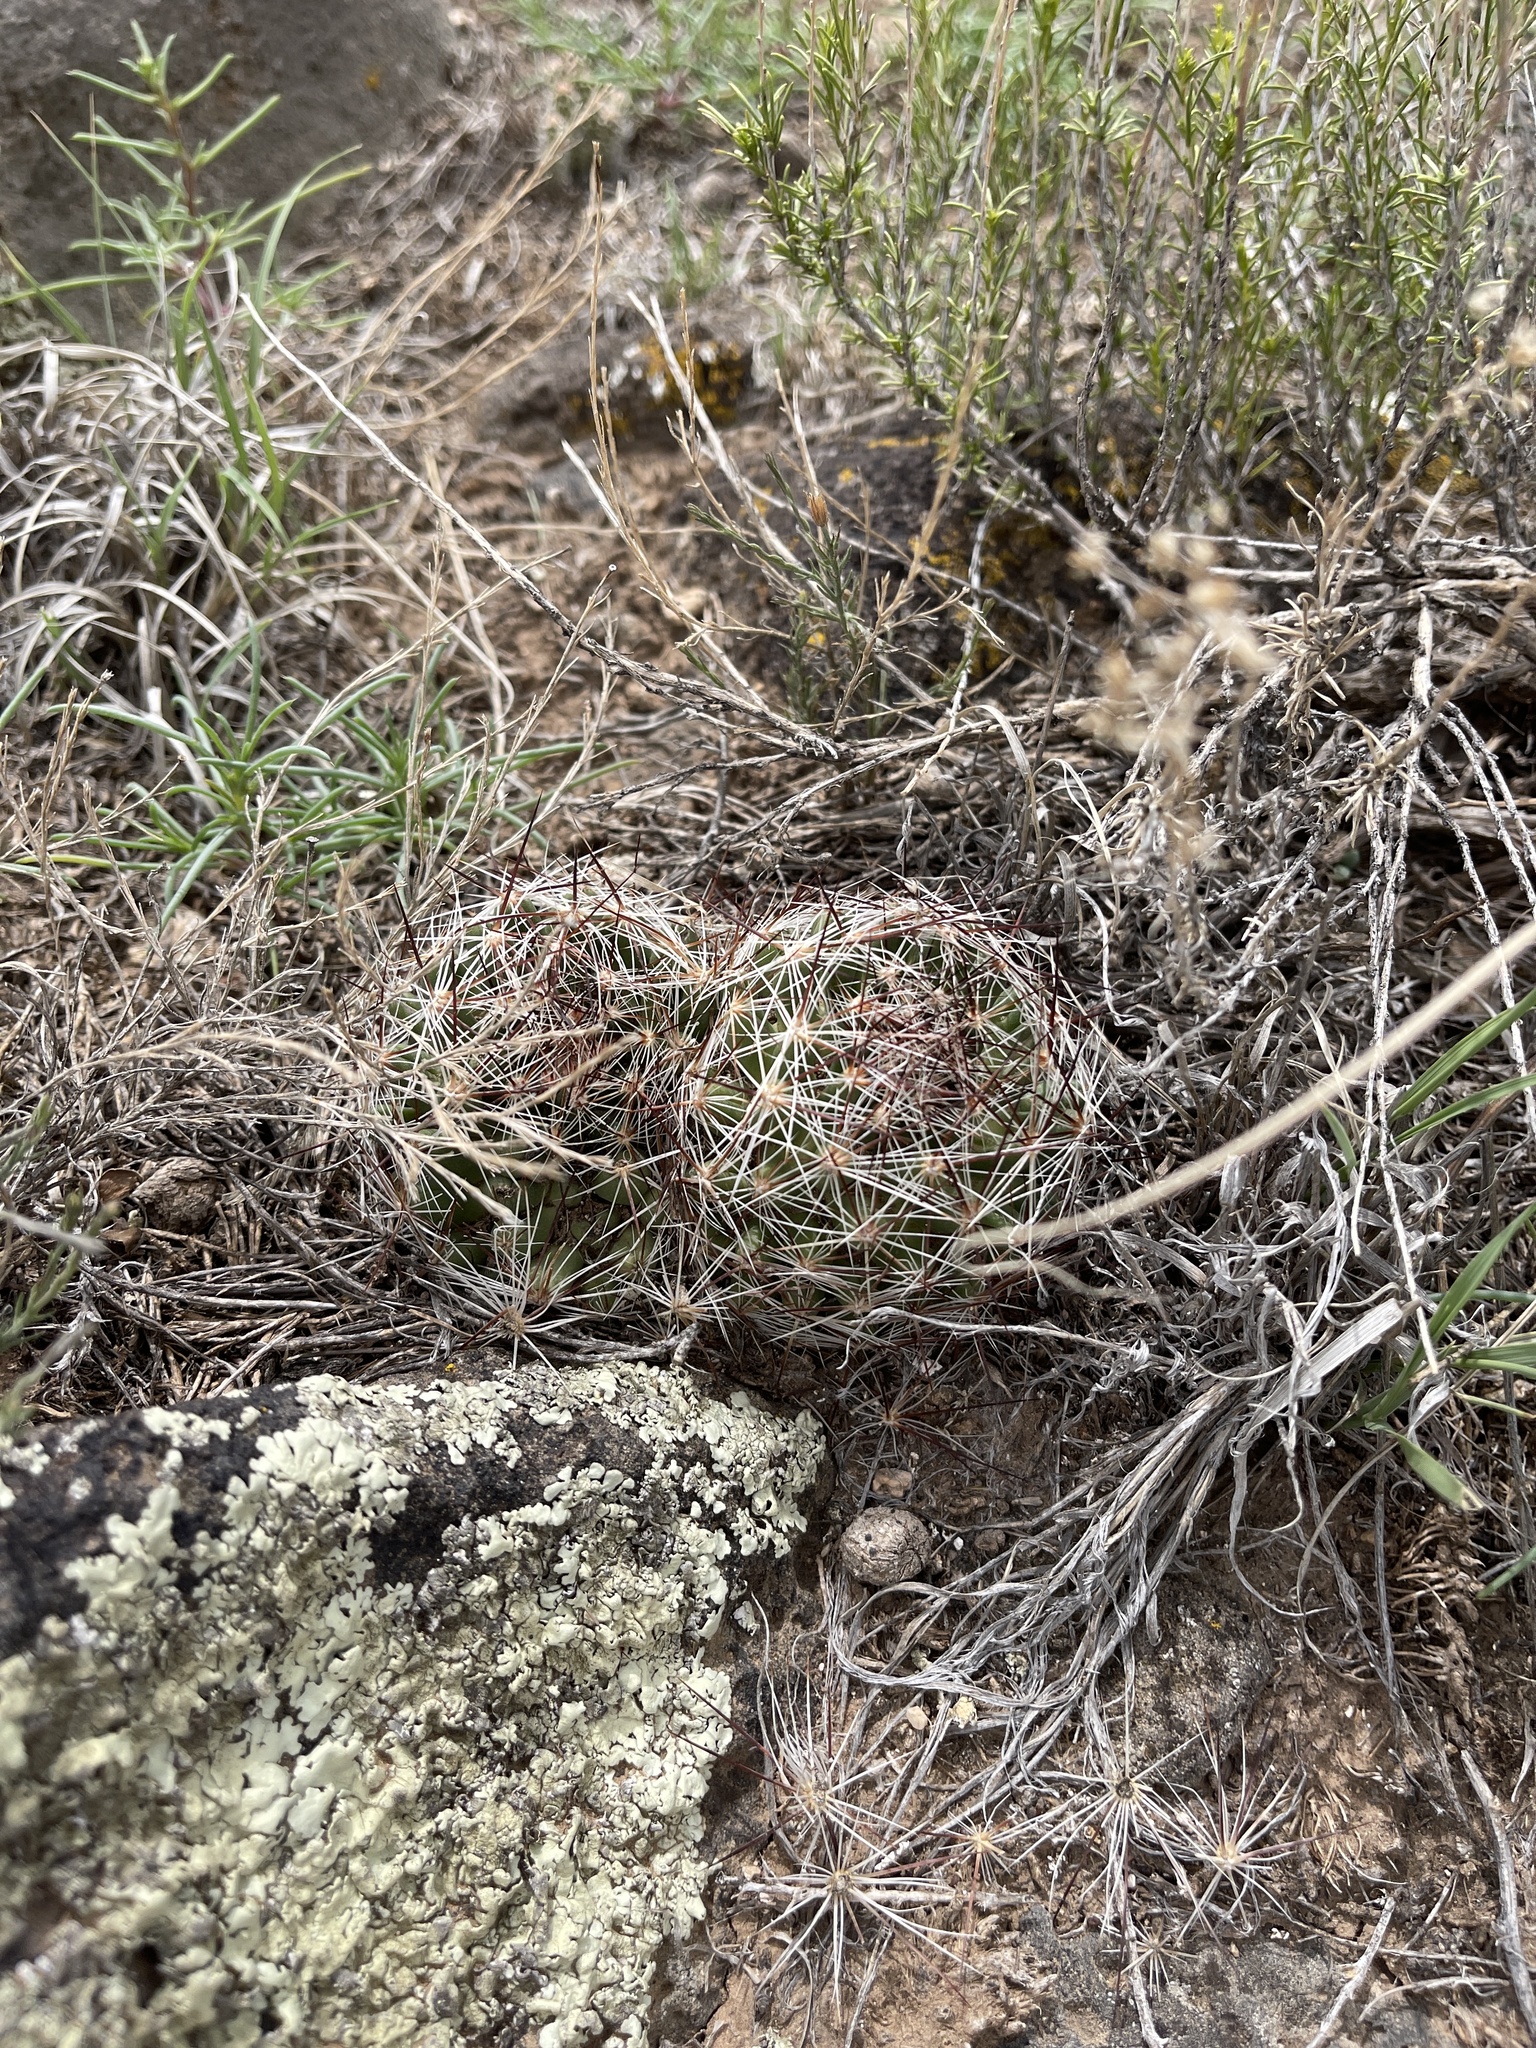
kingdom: Plantae
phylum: Tracheophyta
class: Magnoliopsida
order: Caryophyllales
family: Cactaceae
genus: Pelecyphora
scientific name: Pelecyphora vivipara
